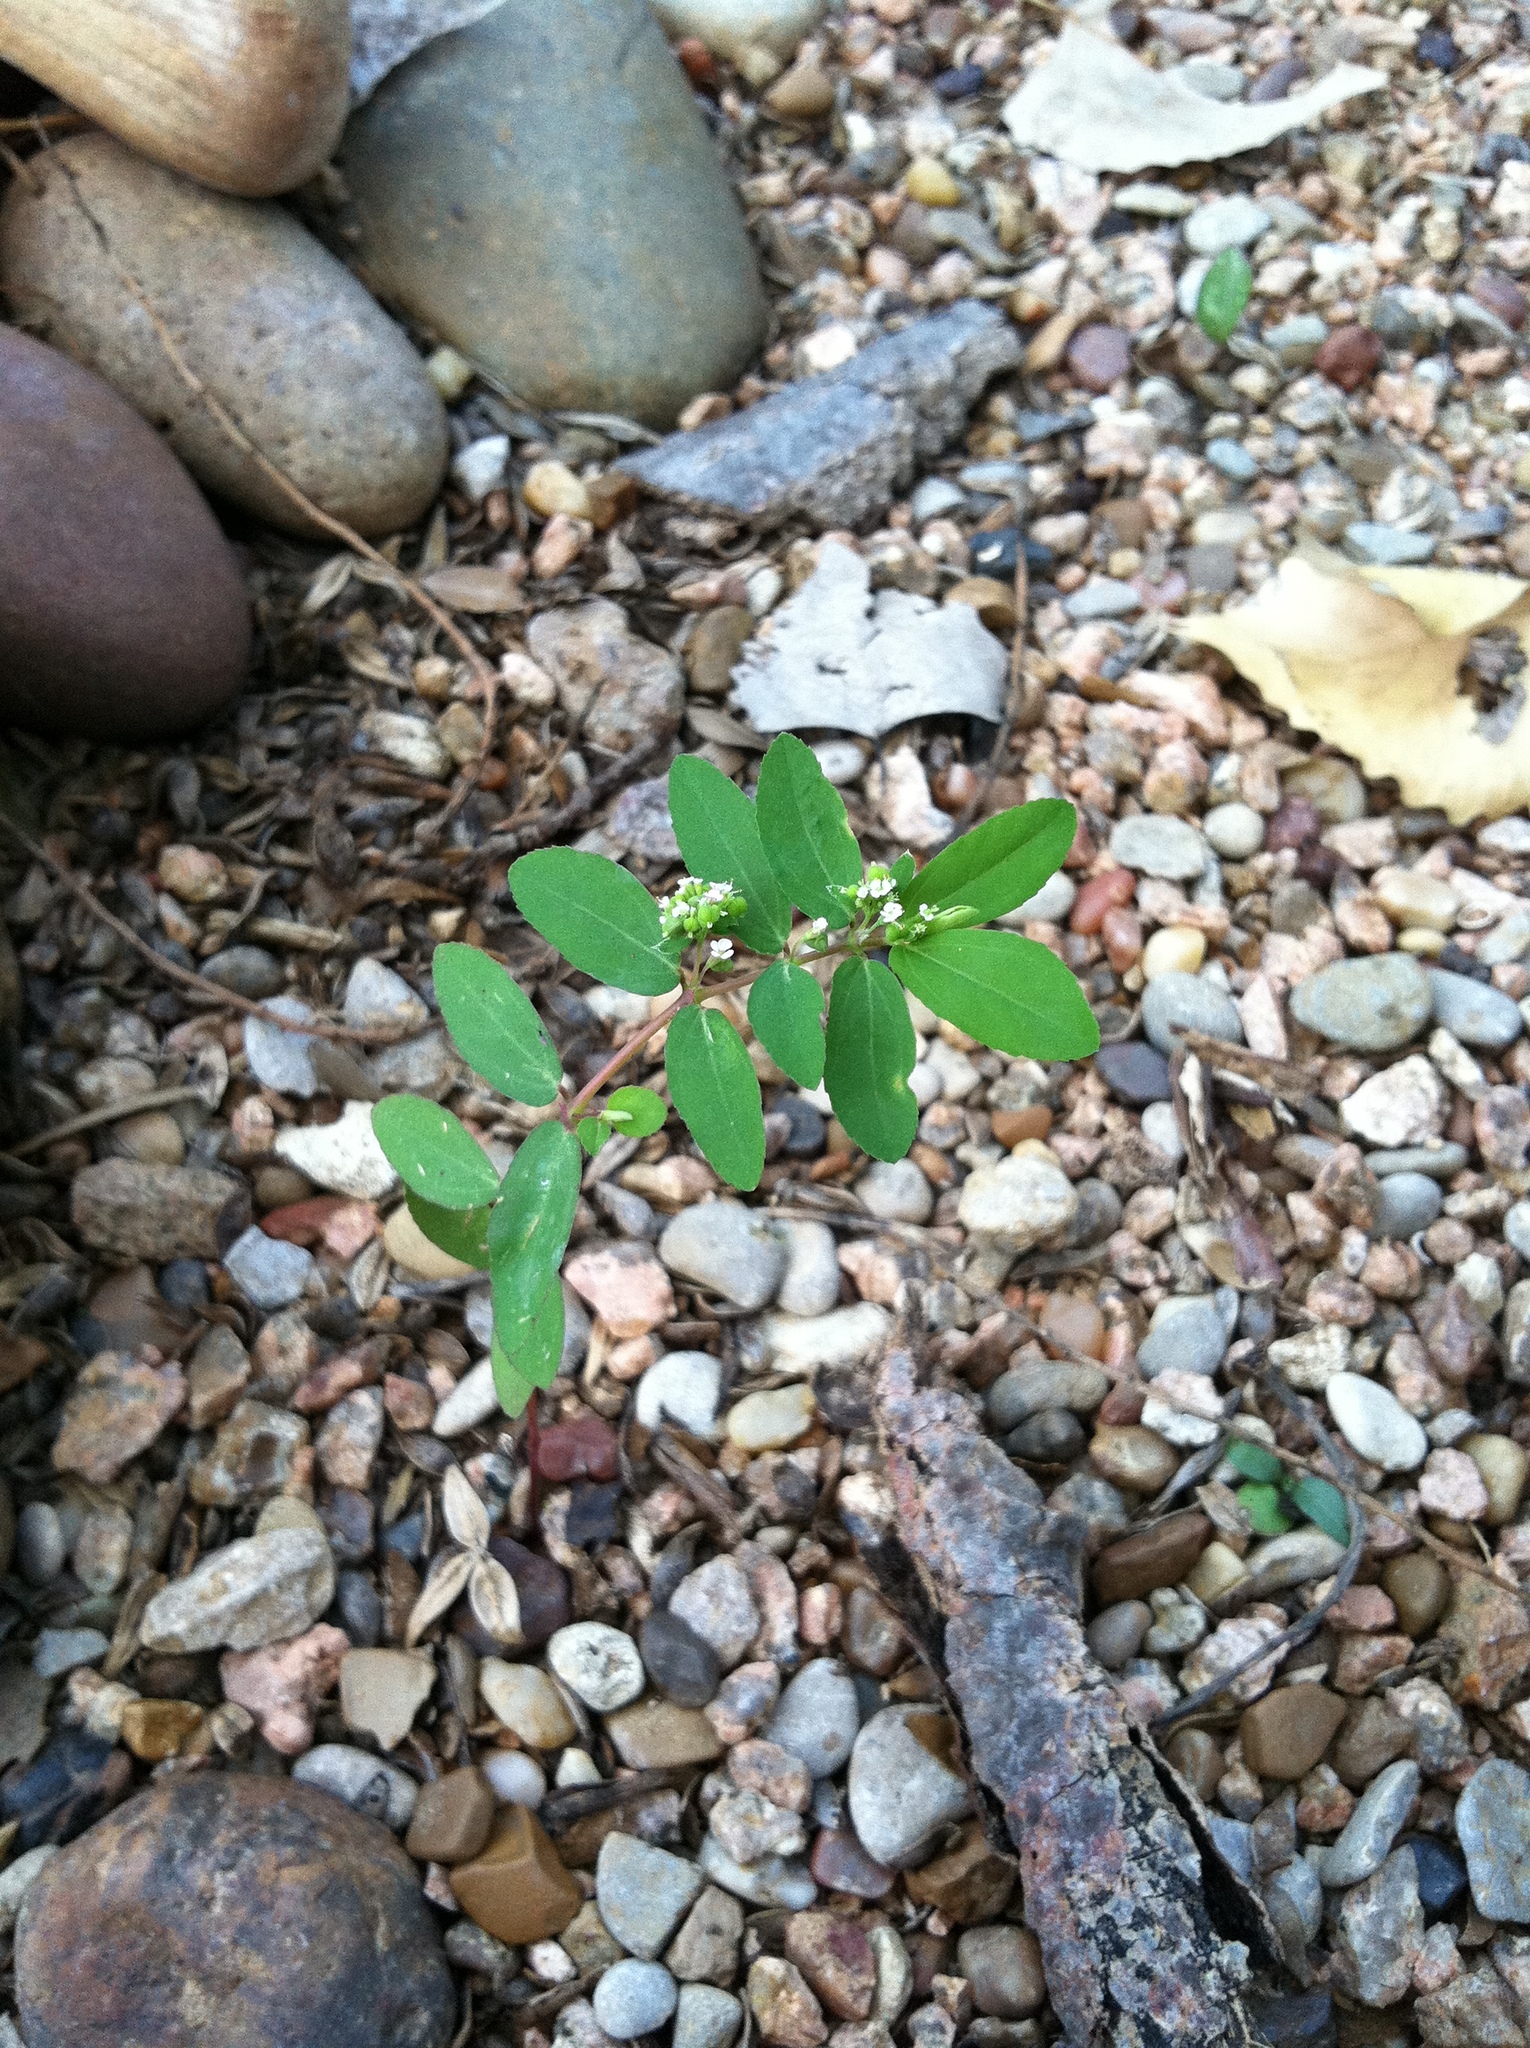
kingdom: Plantae
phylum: Tracheophyta
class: Magnoliopsida
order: Malpighiales
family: Euphorbiaceae
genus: Euphorbia
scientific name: Euphorbia hypericifolia
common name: Graceful sandmat
